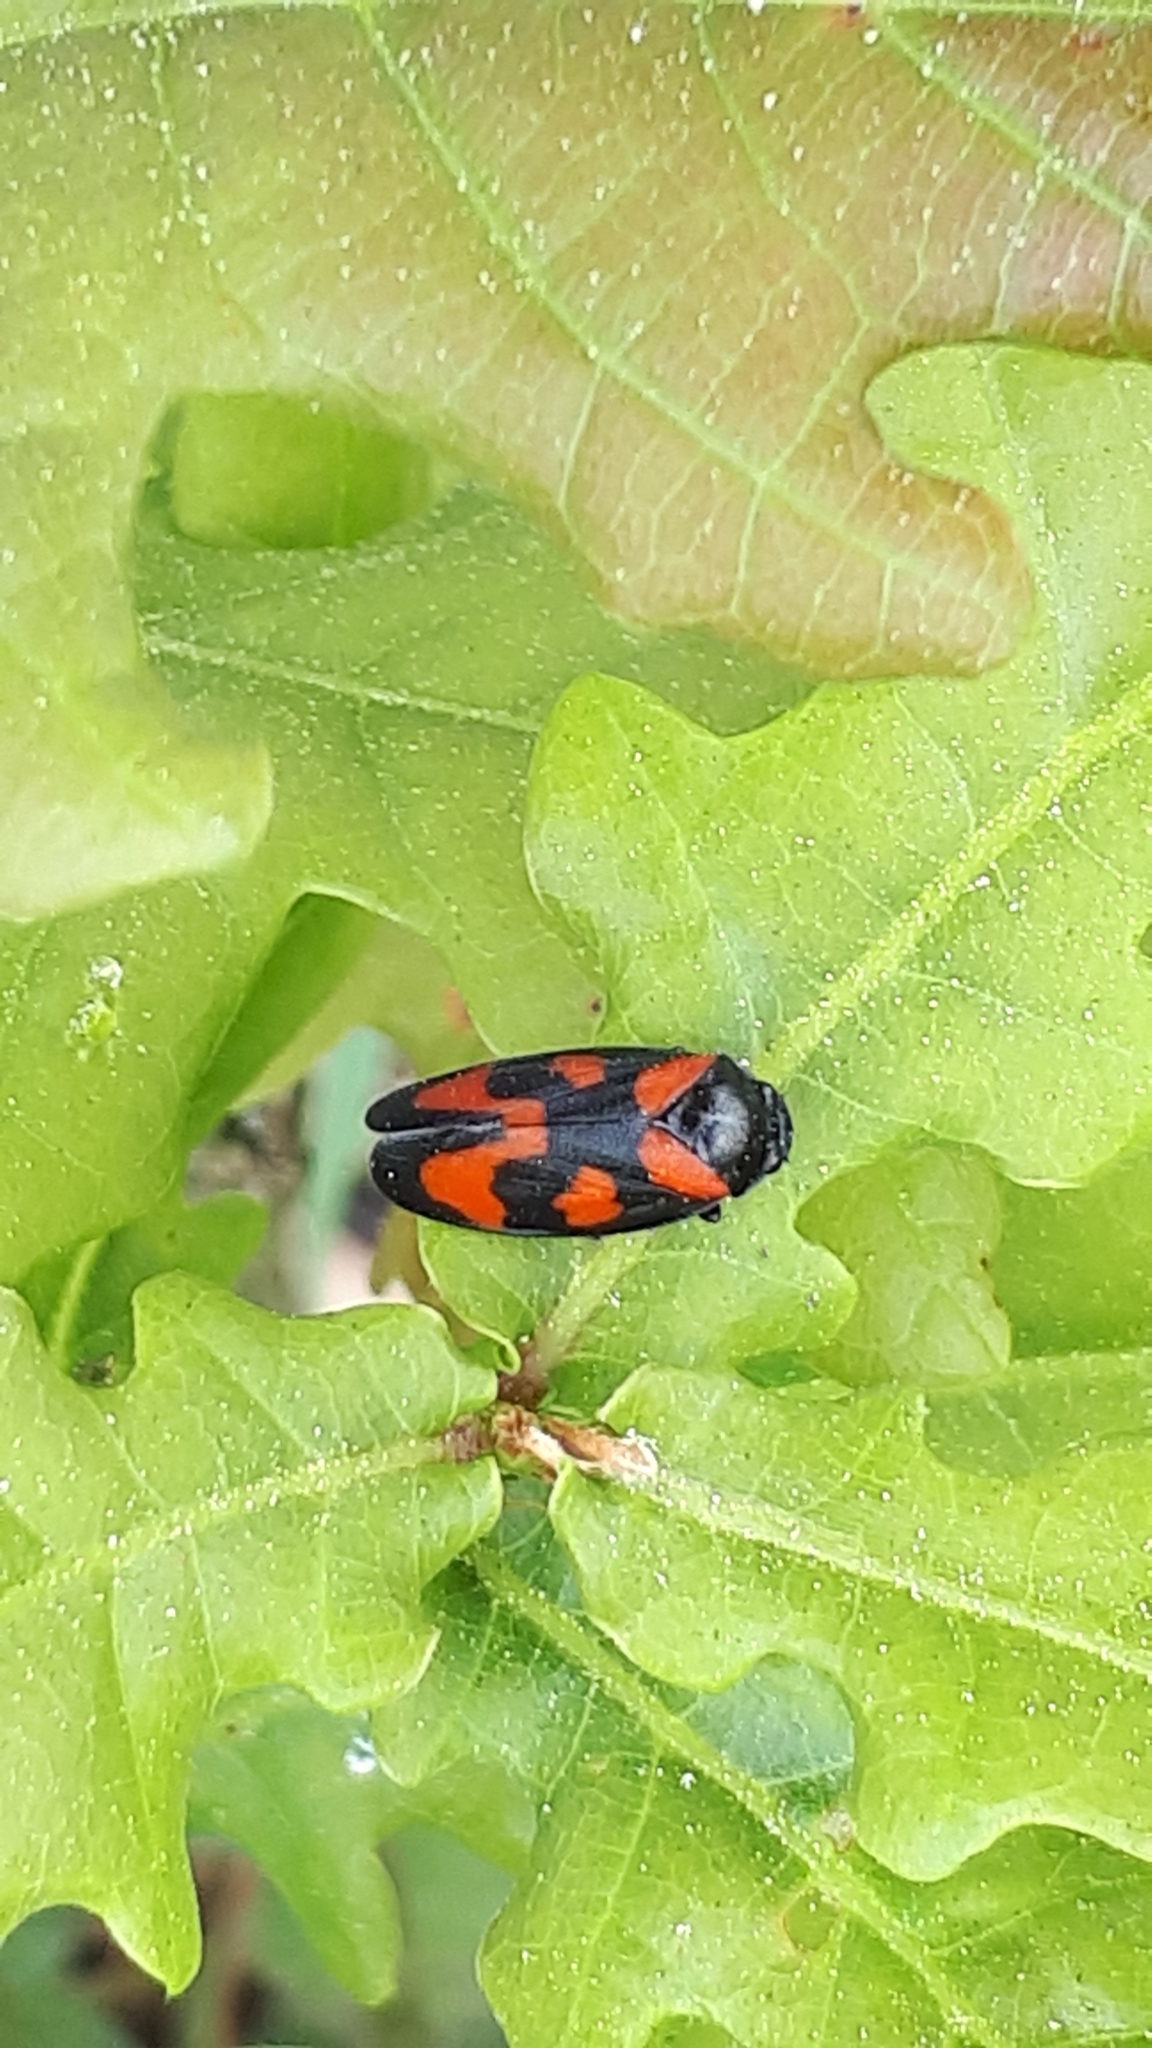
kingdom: Animalia
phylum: Arthropoda
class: Insecta
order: Hemiptera
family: Cercopidae
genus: Cercopis
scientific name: Cercopis vulnerata
